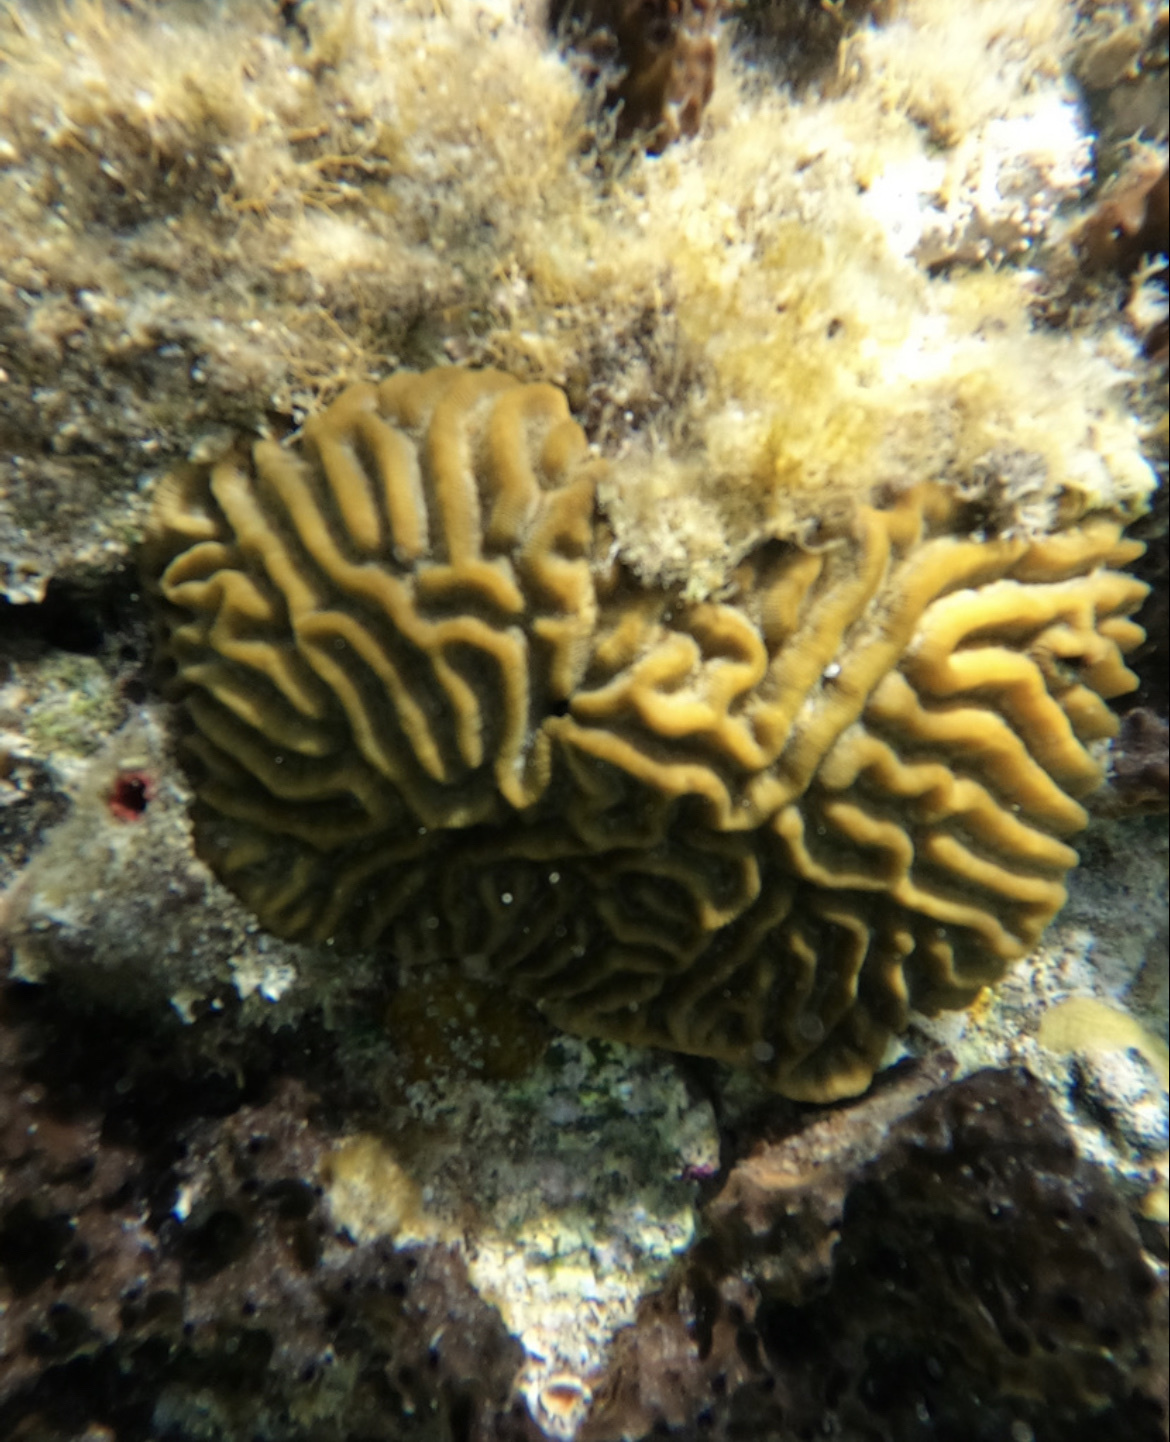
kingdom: Animalia
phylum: Cnidaria
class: Anthozoa
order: Scleractinia
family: Faviidae
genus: Pseudodiploria
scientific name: Pseudodiploria strigosa
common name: Symmetrical brain coral
